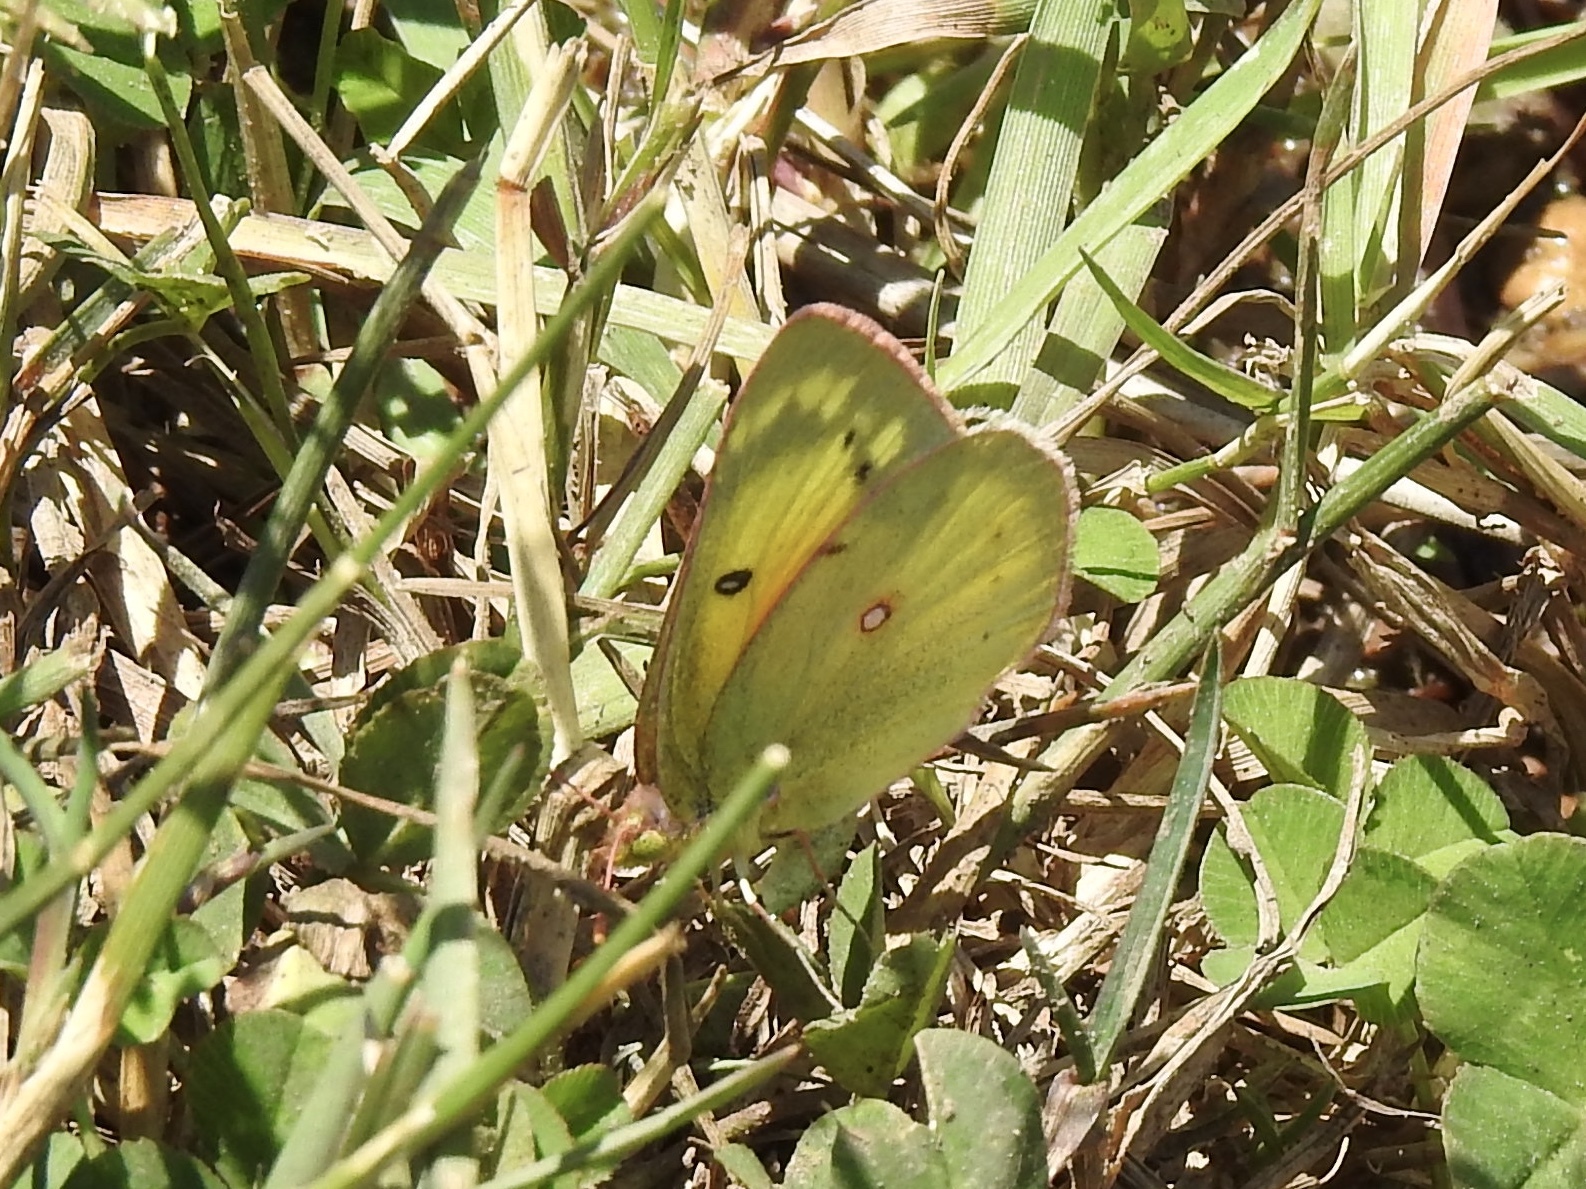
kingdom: Animalia
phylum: Arthropoda
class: Insecta
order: Lepidoptera
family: Pieridae
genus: Colias
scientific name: Colias eurytheme
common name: Alfalfa butterfly
